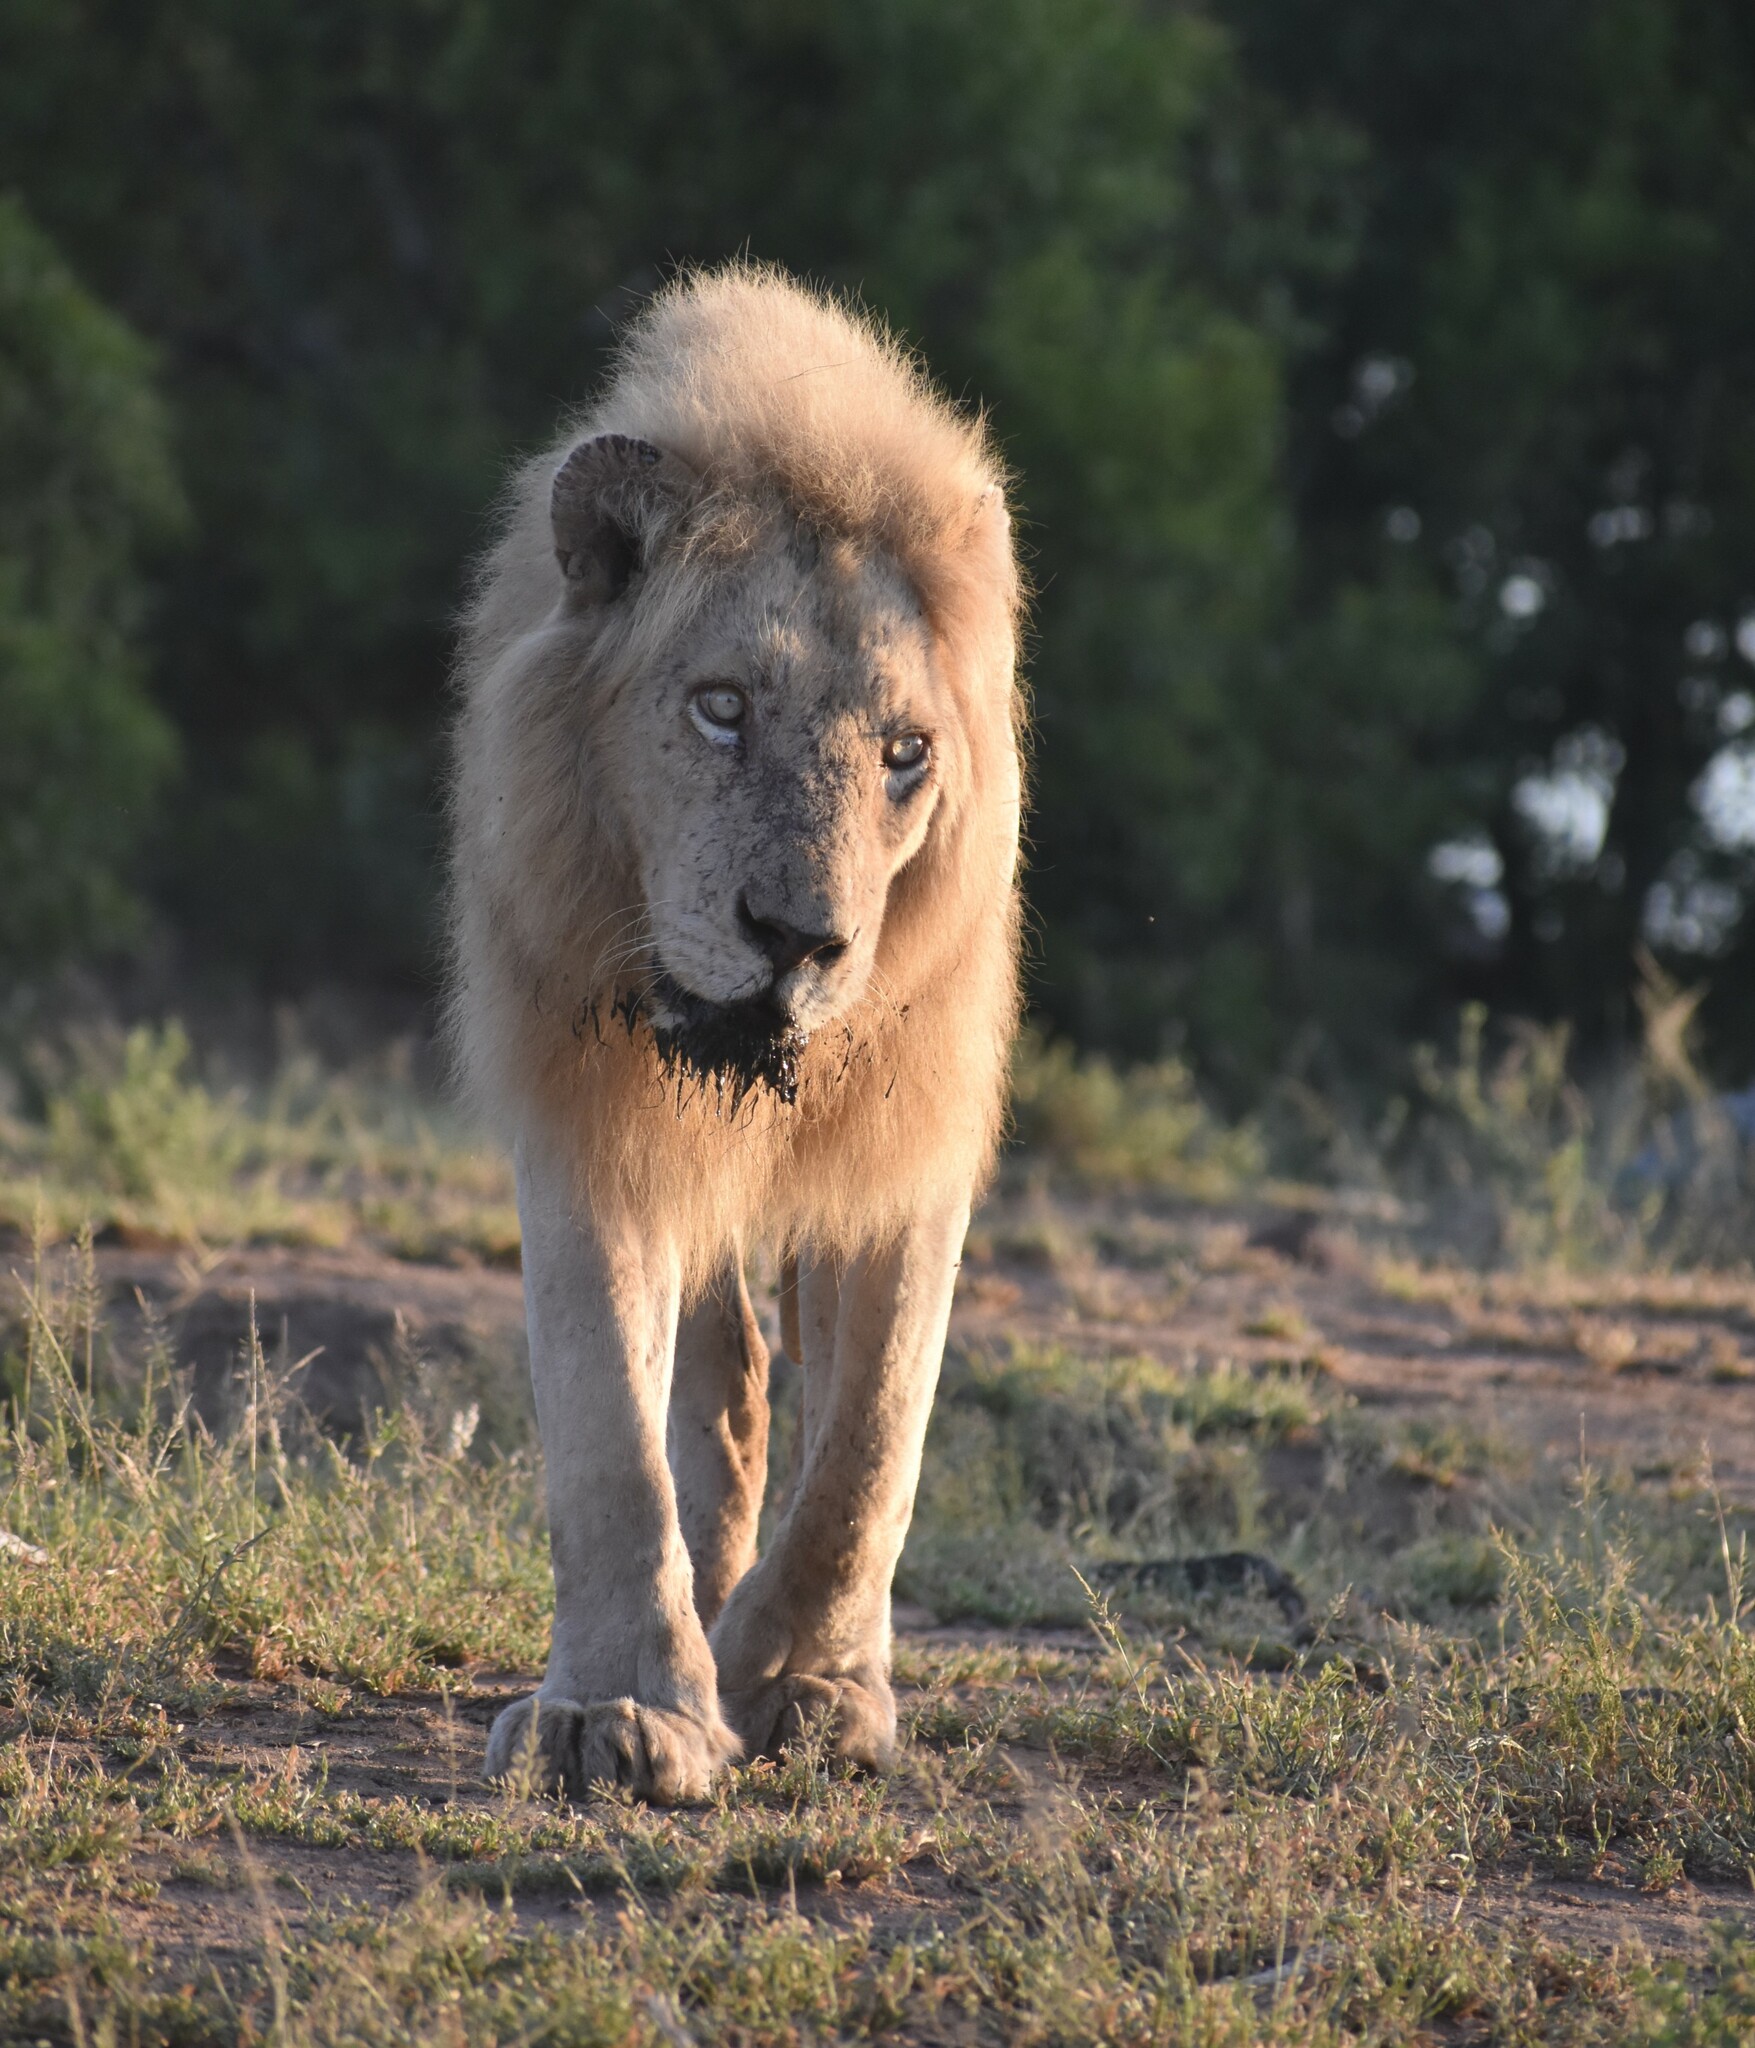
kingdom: Animalia
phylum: Chordata
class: Mammalia
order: Carnivora
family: Felidae
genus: Panthera
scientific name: Panthera leo
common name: Lion
